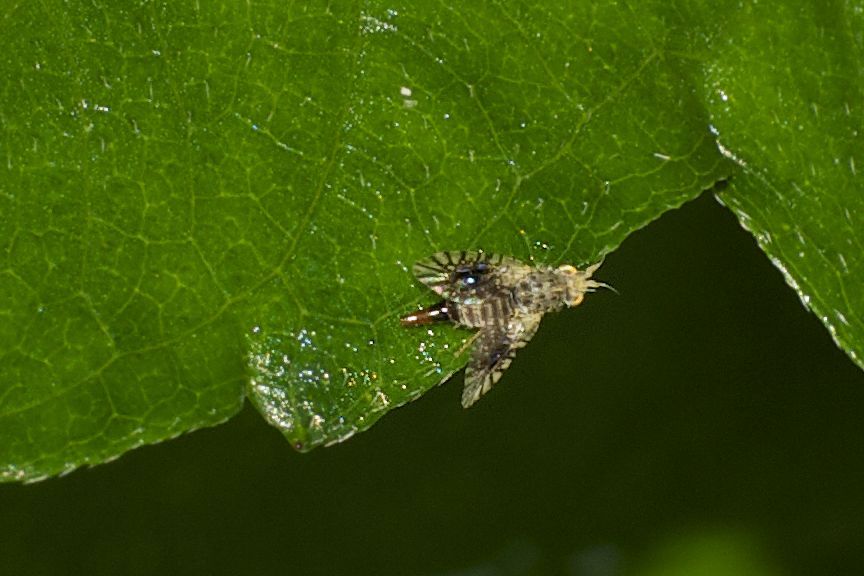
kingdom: Animalia
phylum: Arthropoda
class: Insecta
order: Diptera
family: Tephritidae
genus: Calloptera
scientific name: Calloptera asteria
